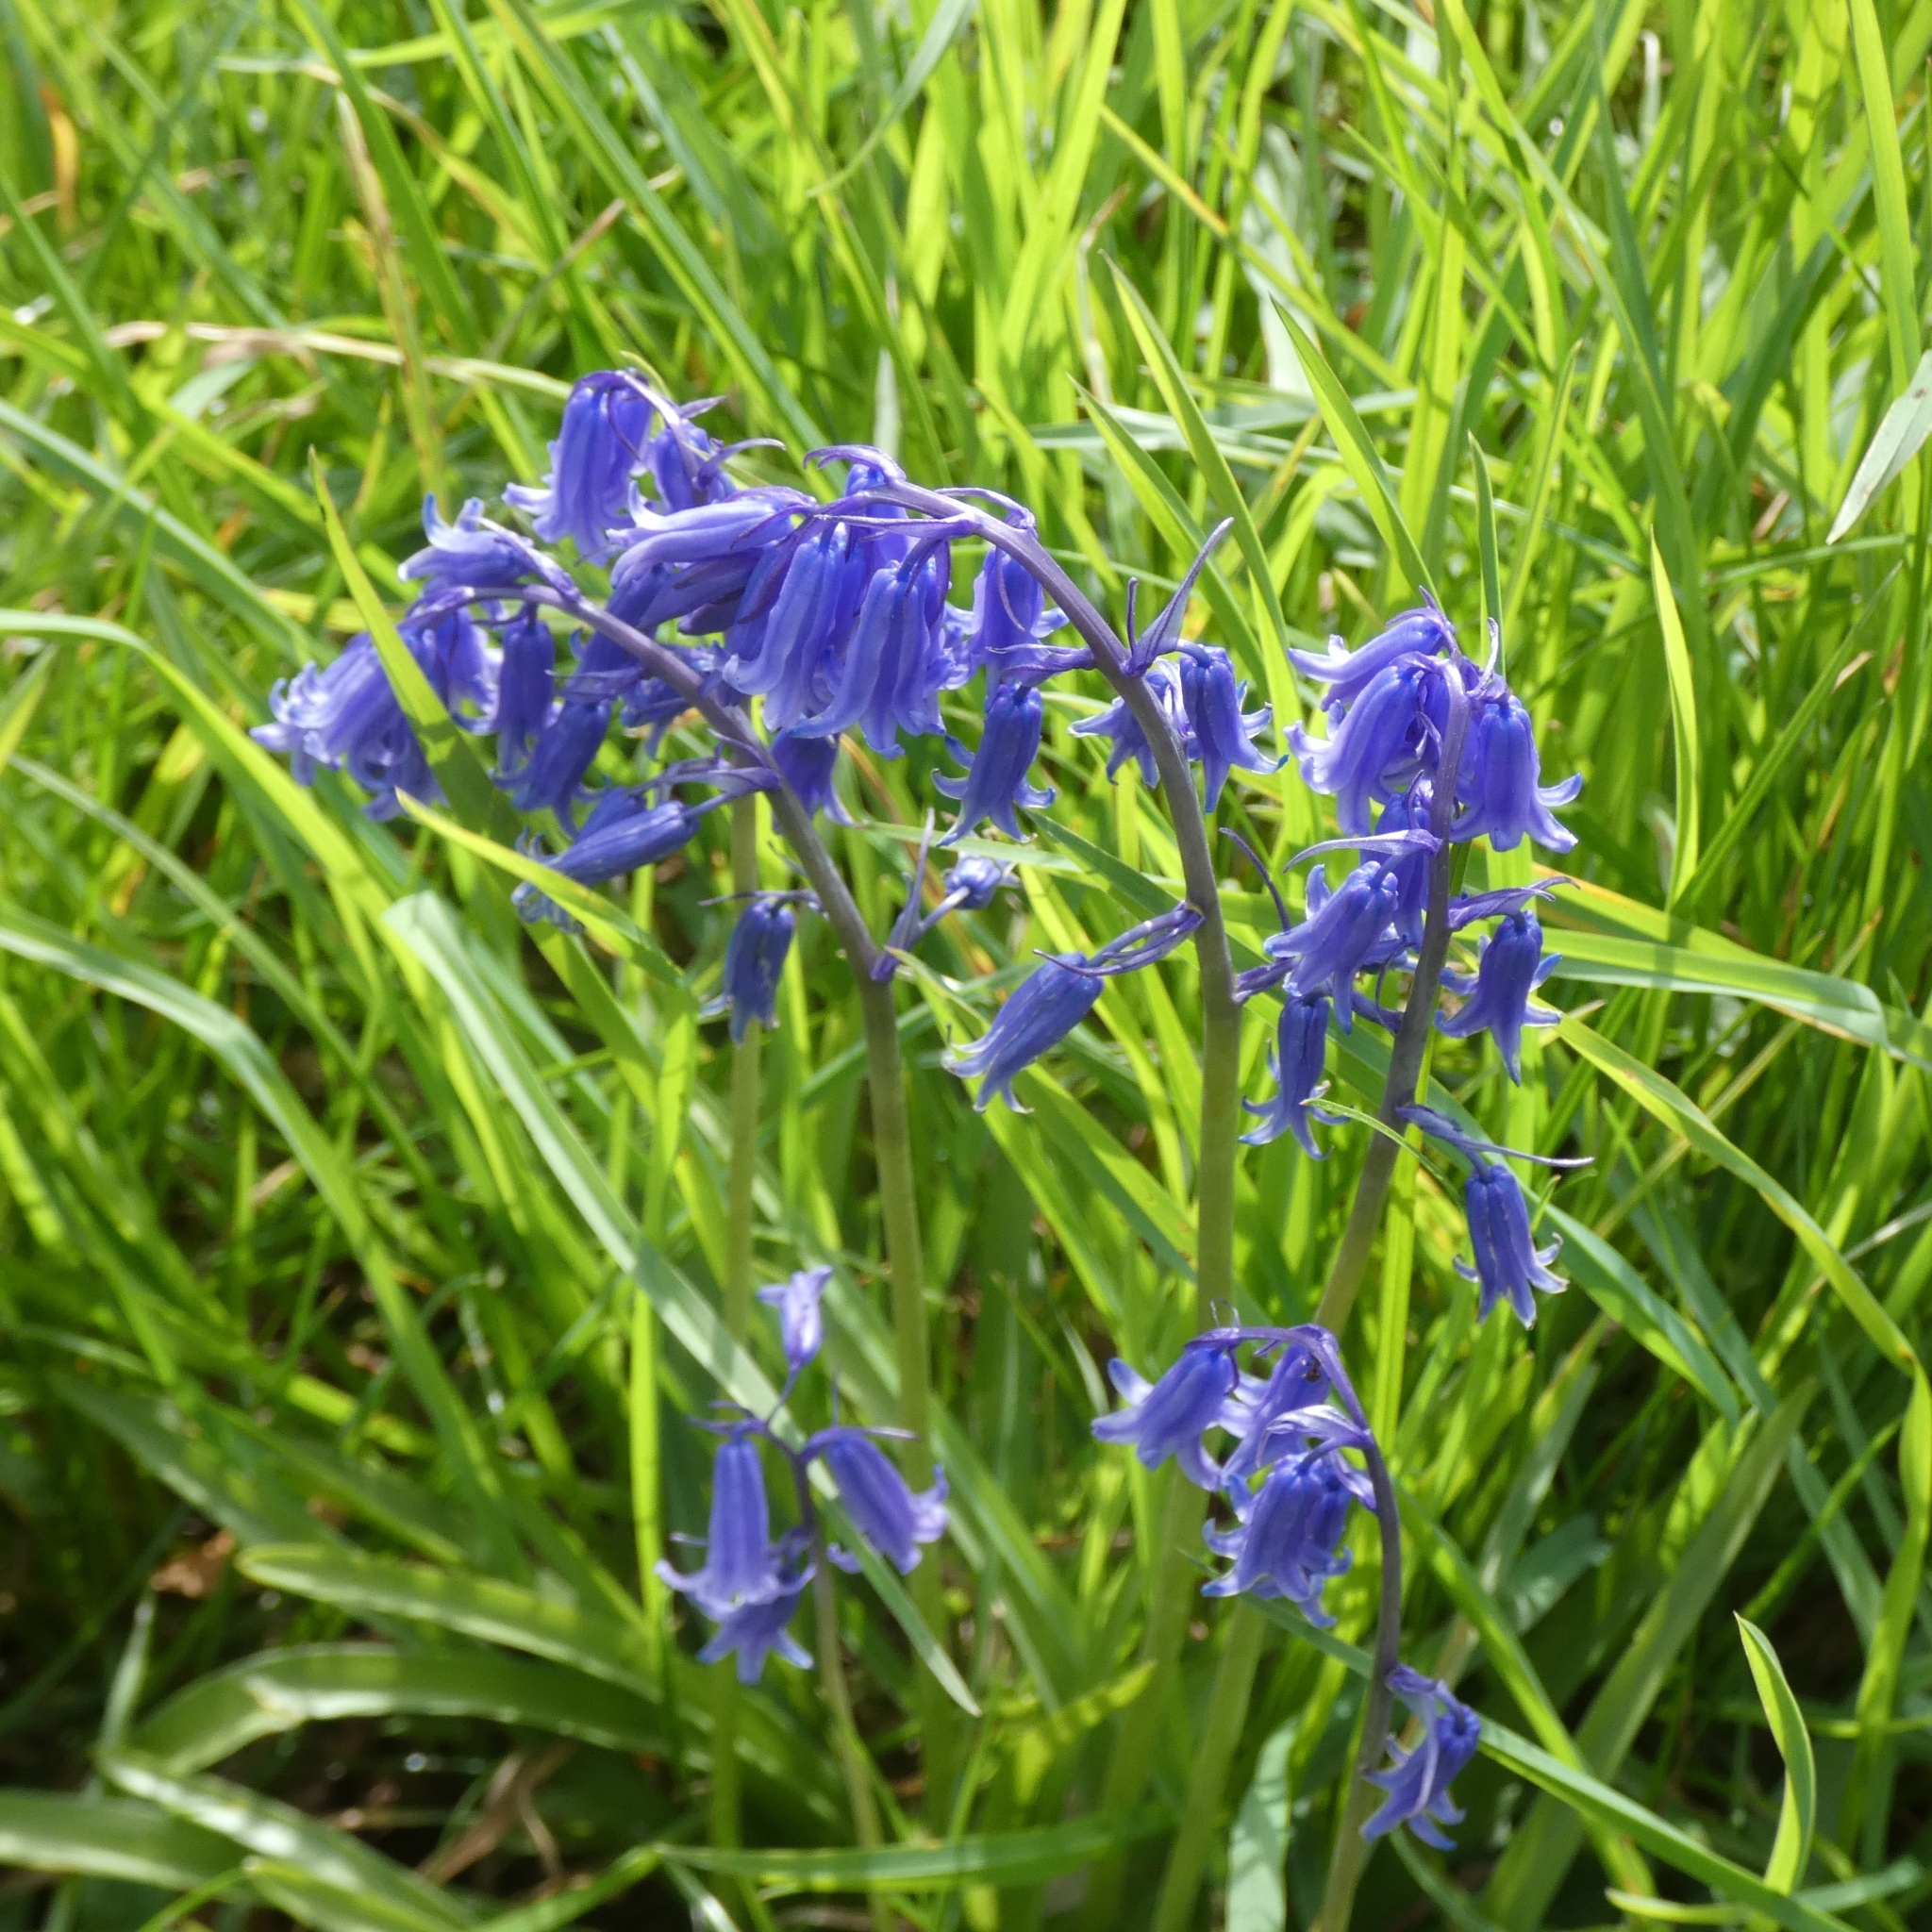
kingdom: Plantae
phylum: Tracheophyta
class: Liliopsida
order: Asparagales
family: Asparagaceae
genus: Hyacinthoides
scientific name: Hyacinthoides non-scripta
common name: Bluebell
